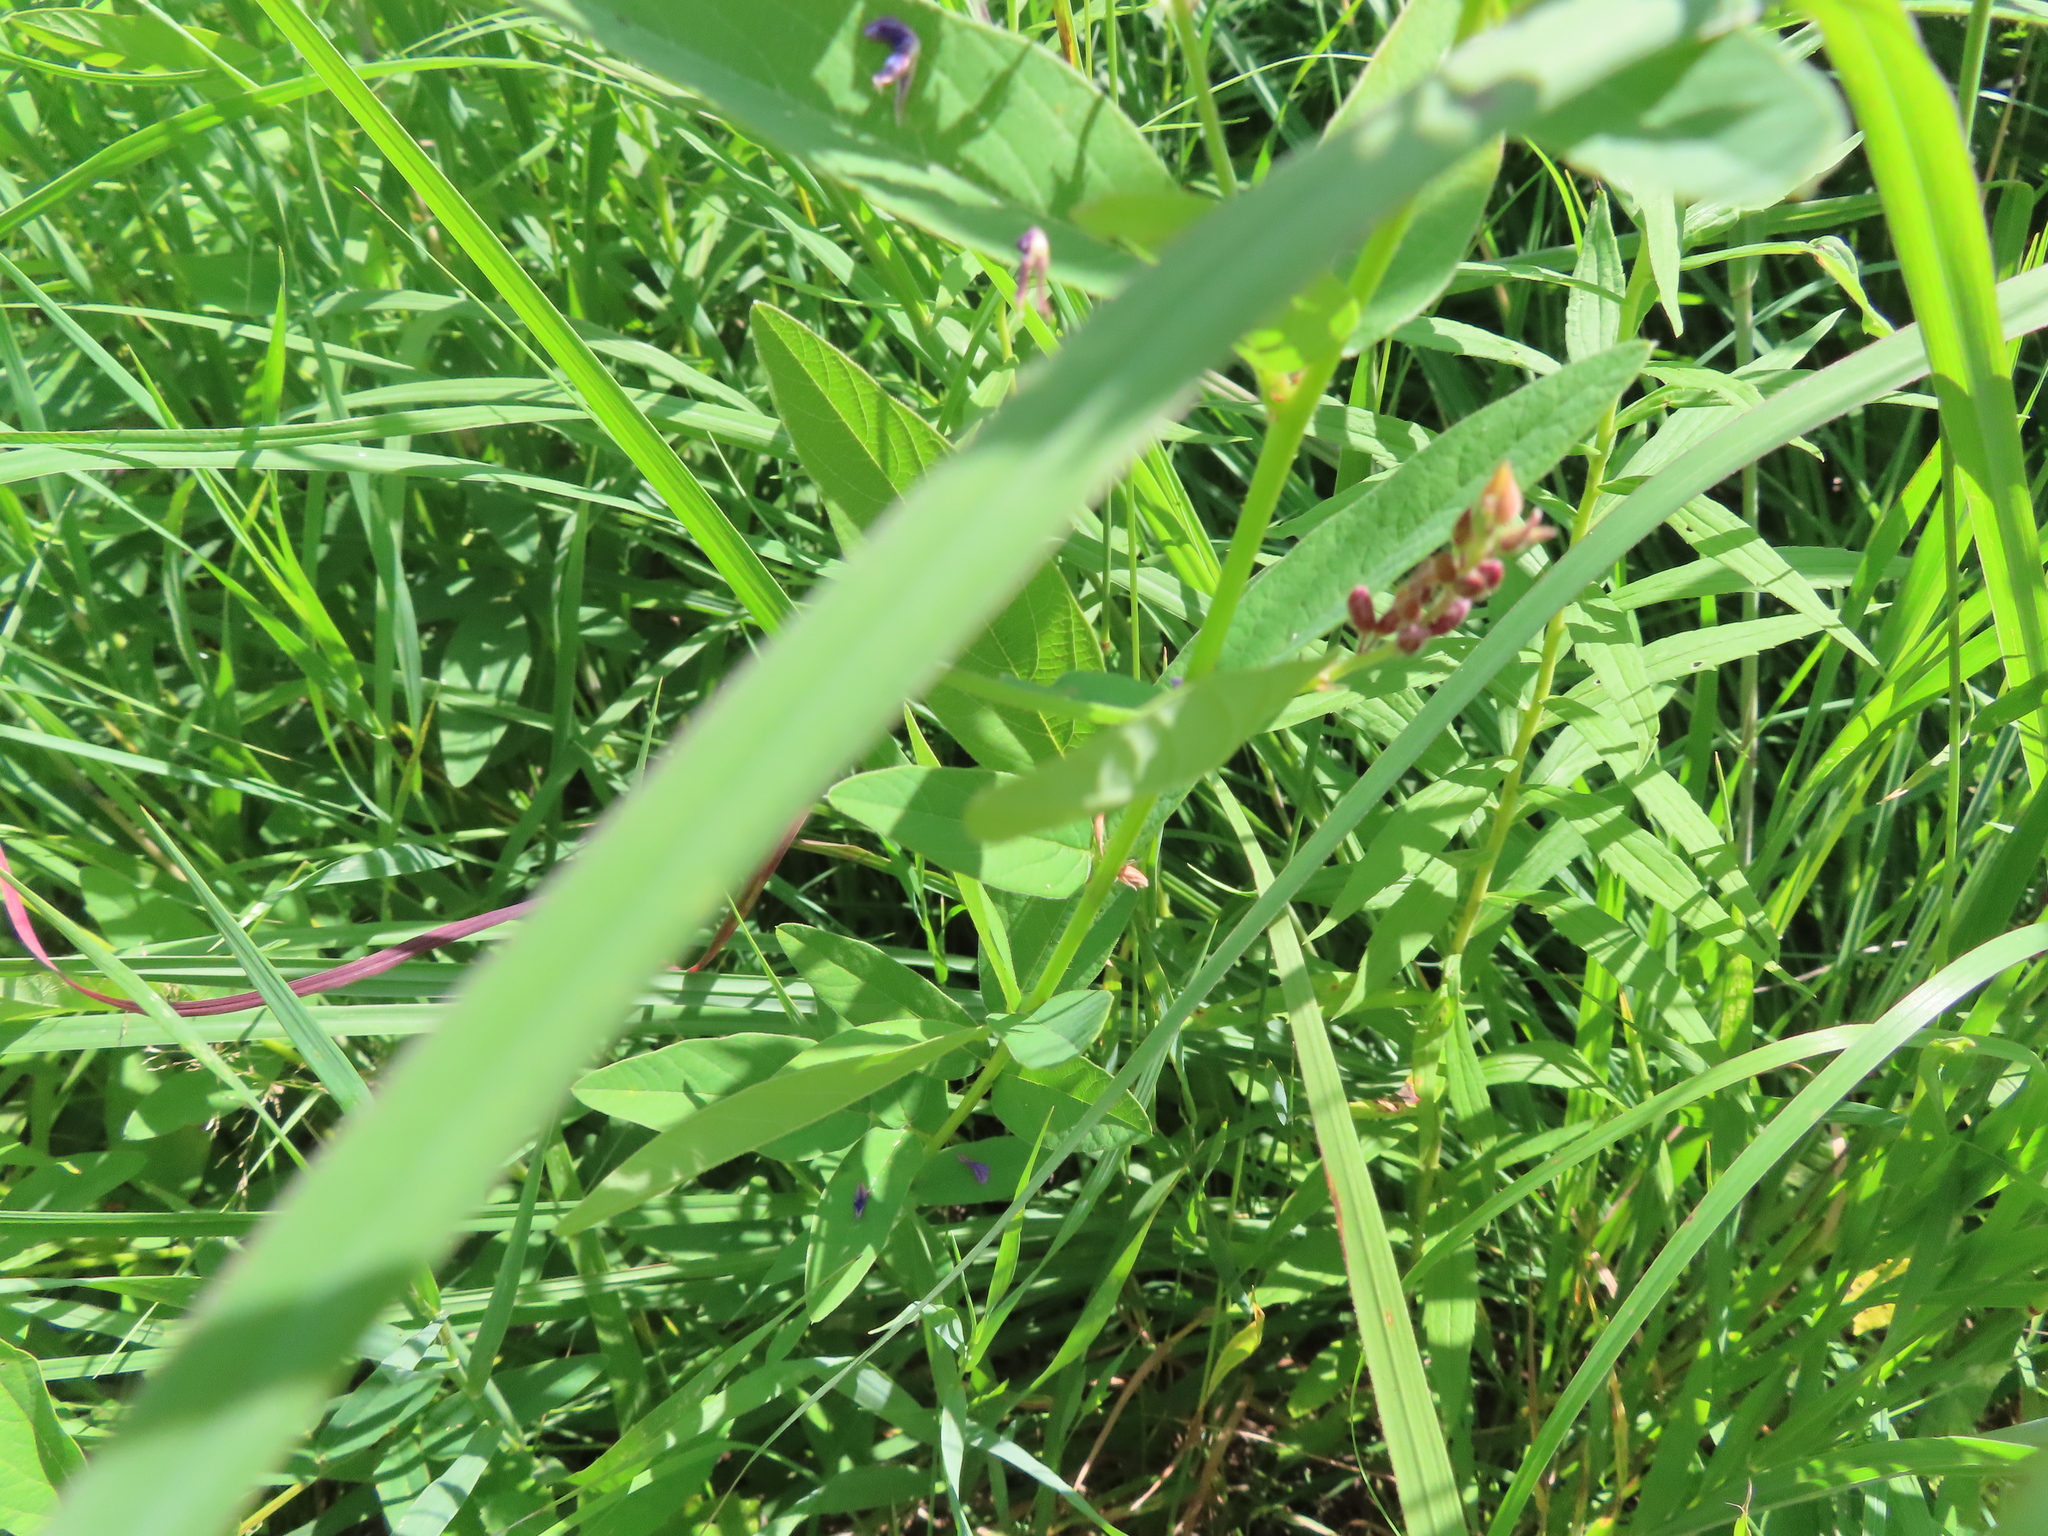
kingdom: Plantae
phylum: Tracheophyta
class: Magnoliopsida
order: Fabales
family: Fabaceae
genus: Desmodium
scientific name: Desmodium canadense
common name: Canada tick-trefoil
